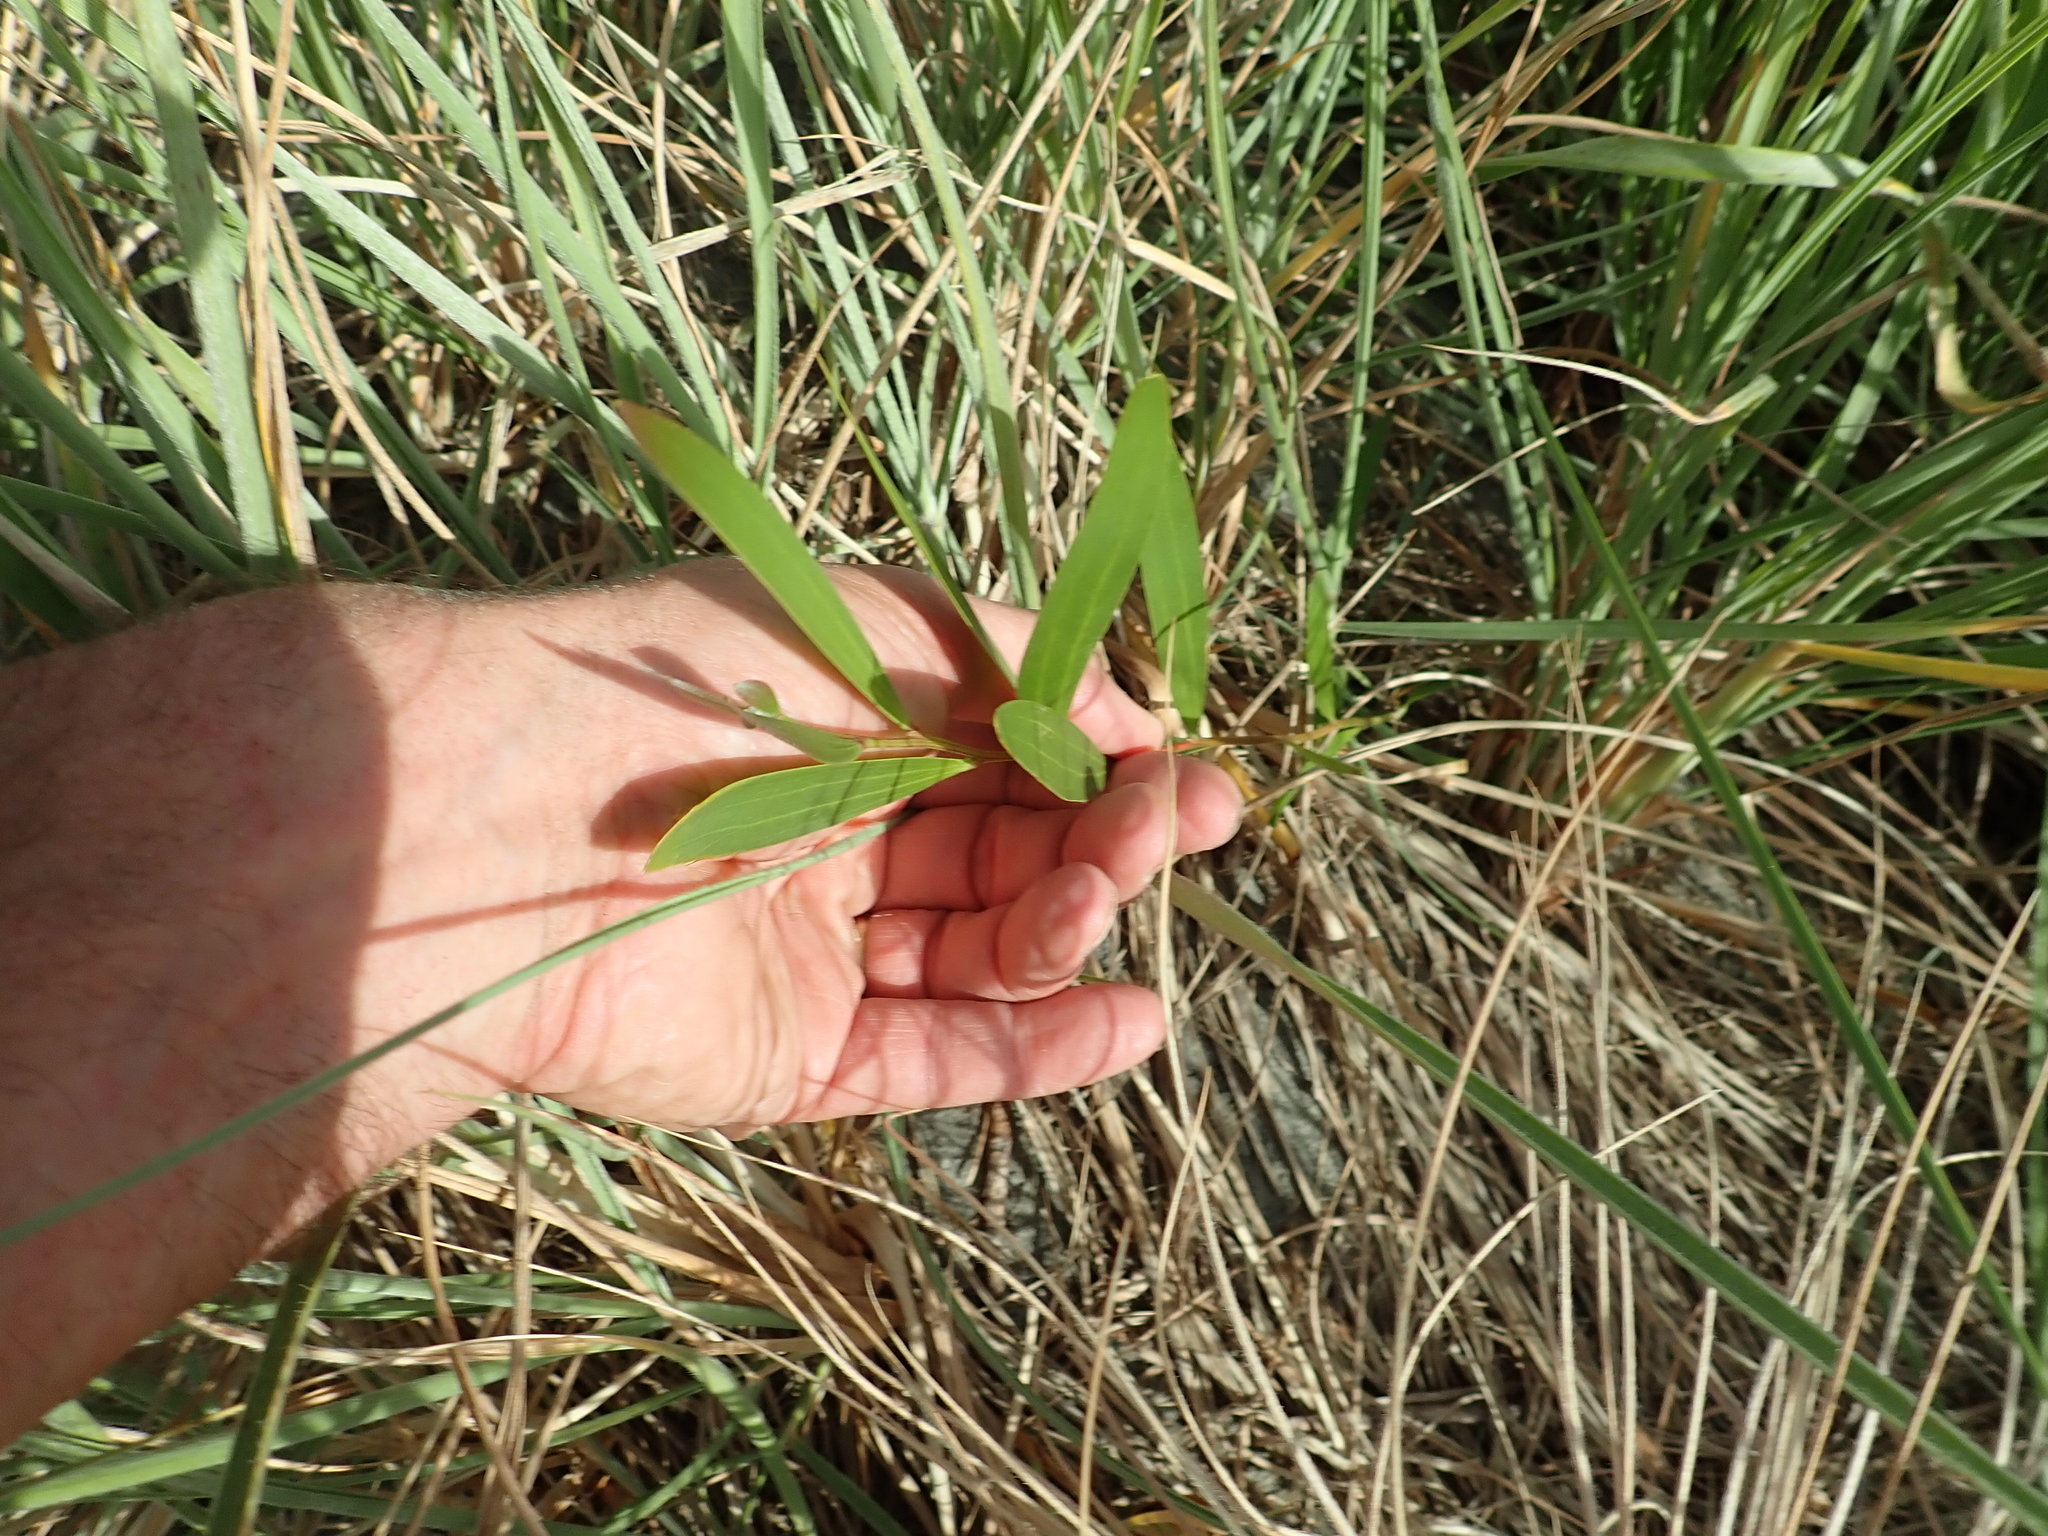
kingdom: Plantae
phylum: Tracheophyta
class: Magnoliopsida
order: Fabales
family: Fabaceae
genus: Acacia
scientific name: Acacia longifolia
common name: Sydney golden wattle
